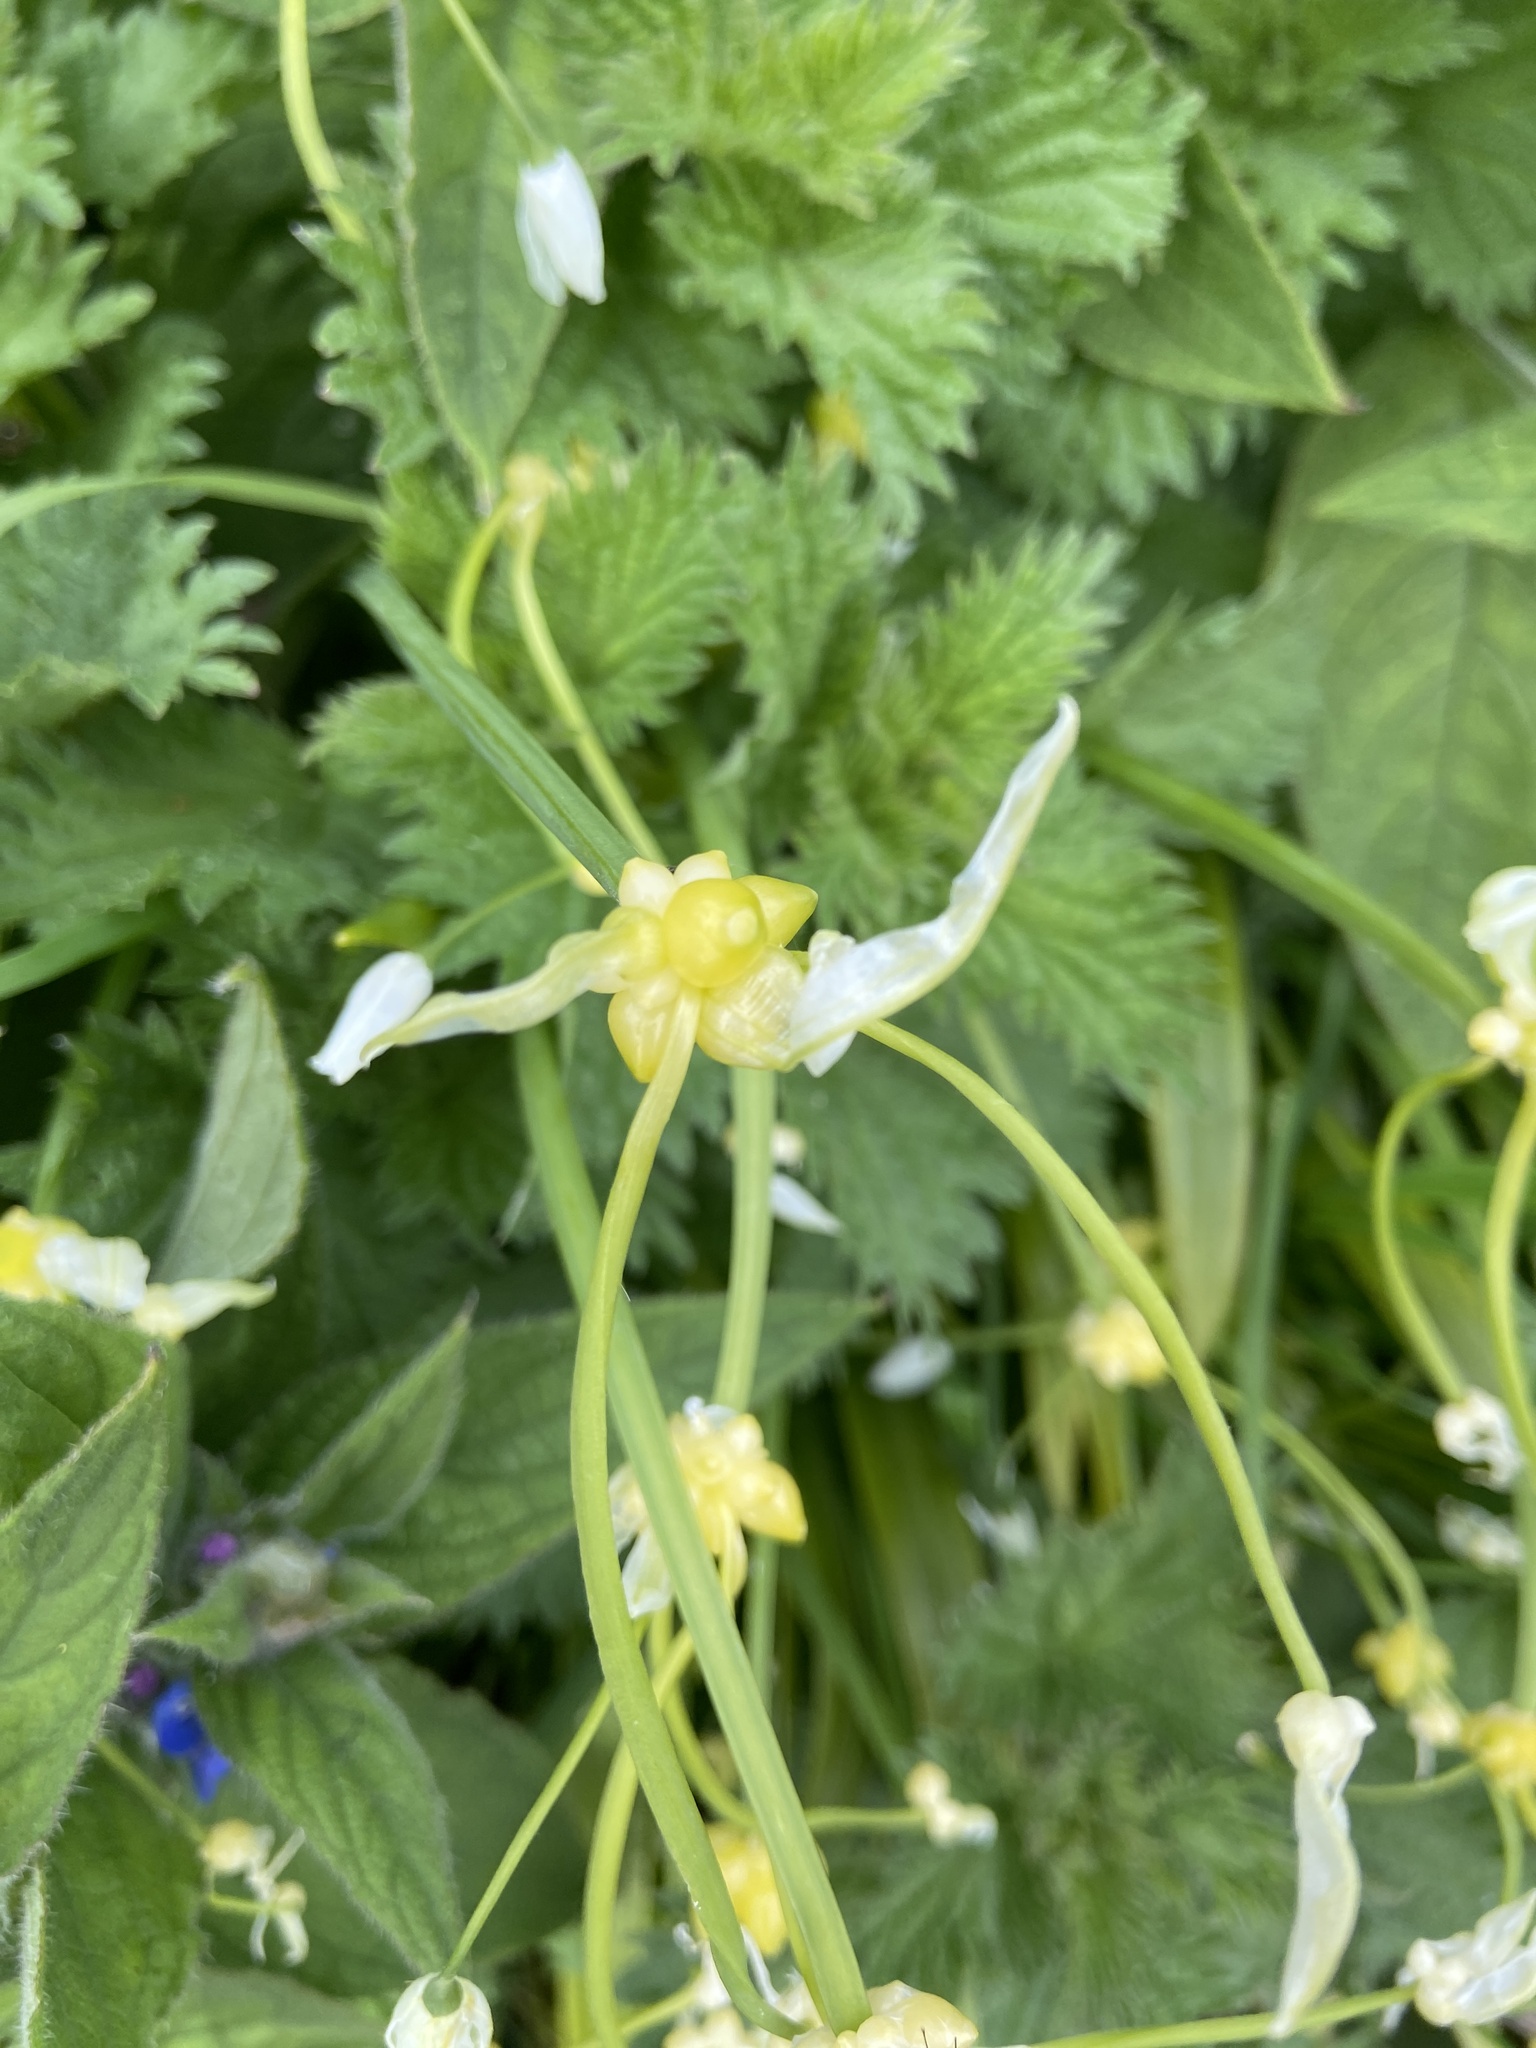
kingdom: Plantae
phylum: Tracheophyta
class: Liliopsida
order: Asparagales
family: Amaryllidaceae
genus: Allium
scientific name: Allium paradoxum
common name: Few-flowered garlic
